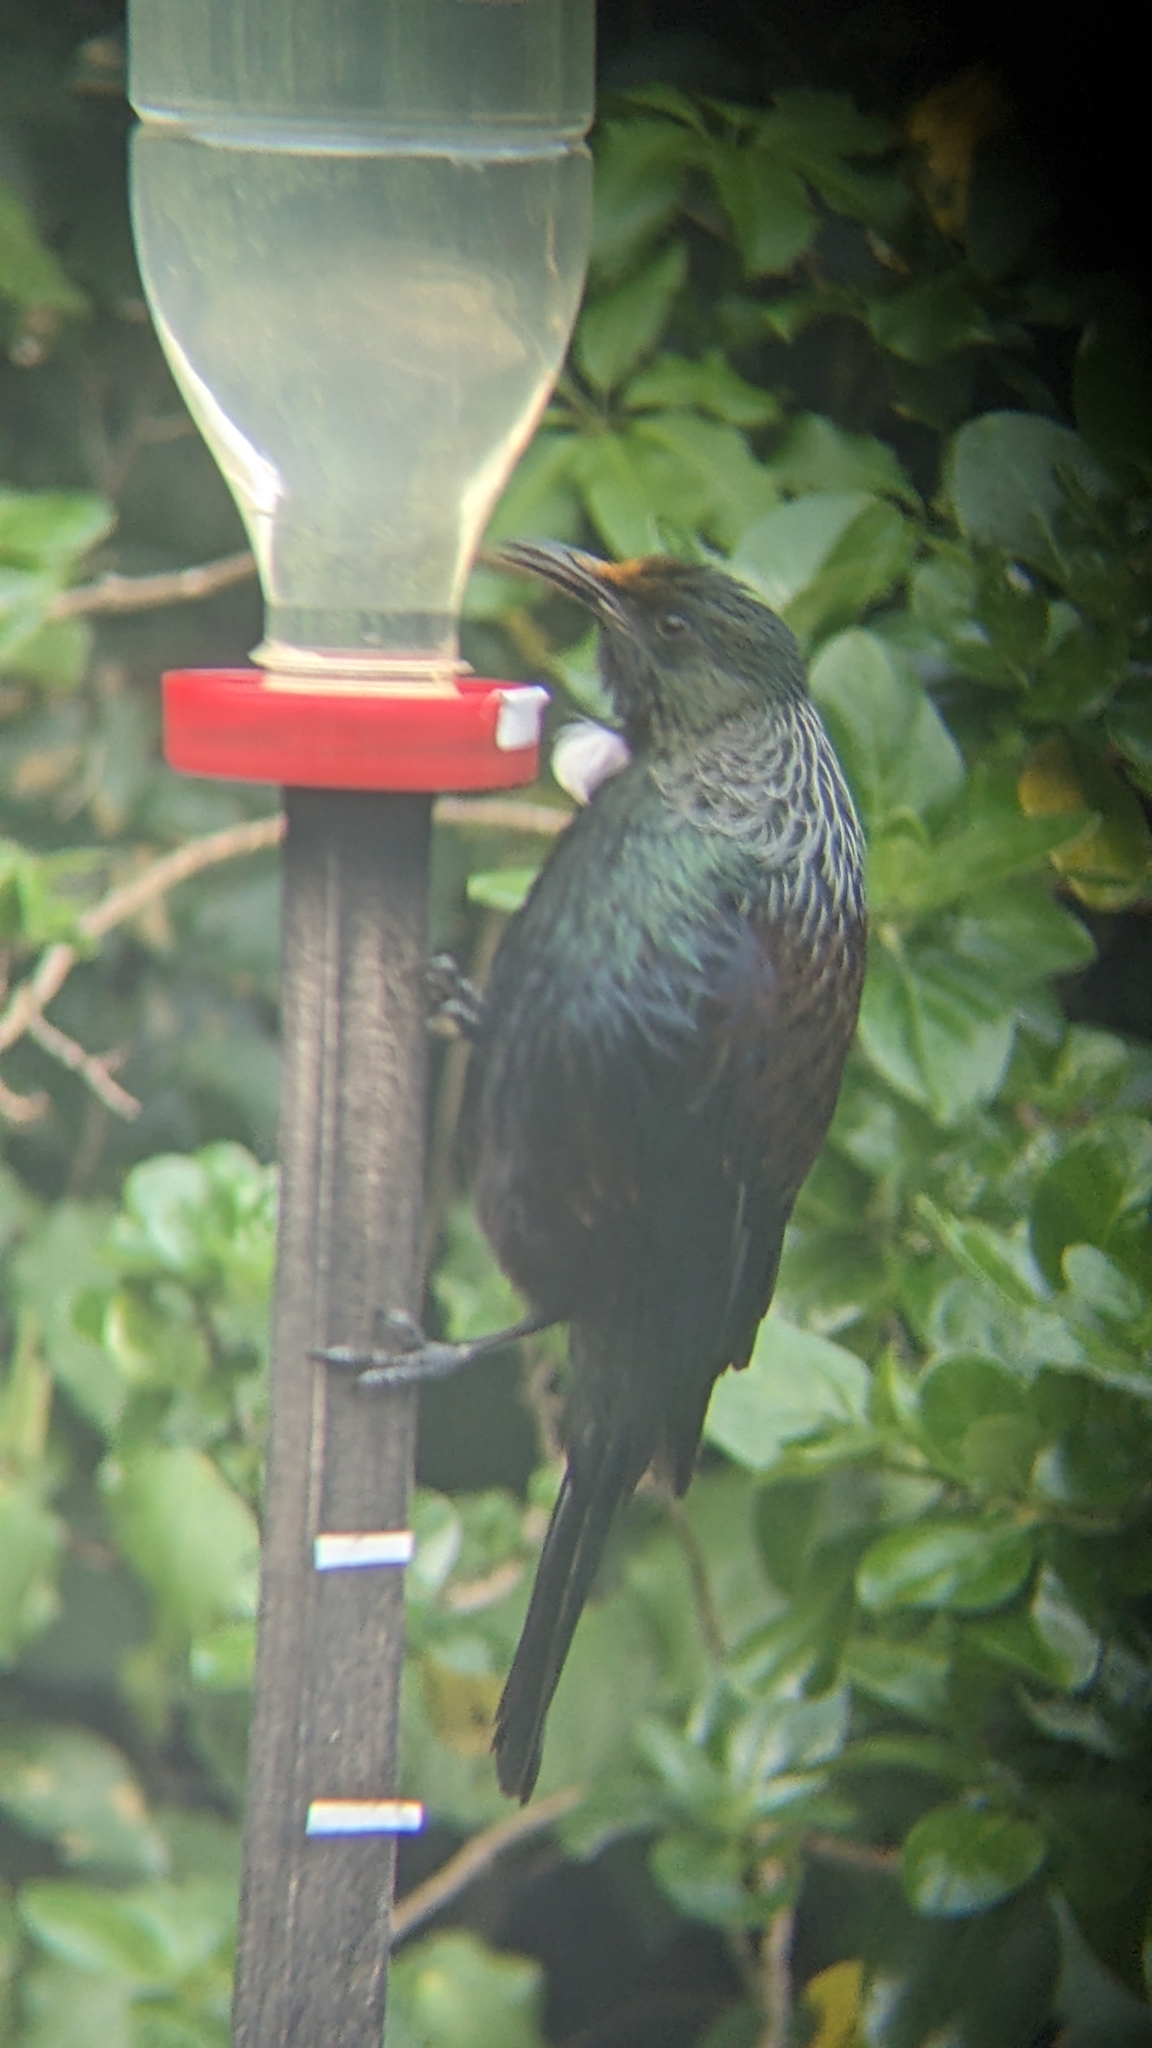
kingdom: Animalia
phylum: Chordata
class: Aves
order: Passeriformes
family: Meliphagidae
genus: Prosthemadera
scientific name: Prosthemadera novaeseelandiae
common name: Tui
